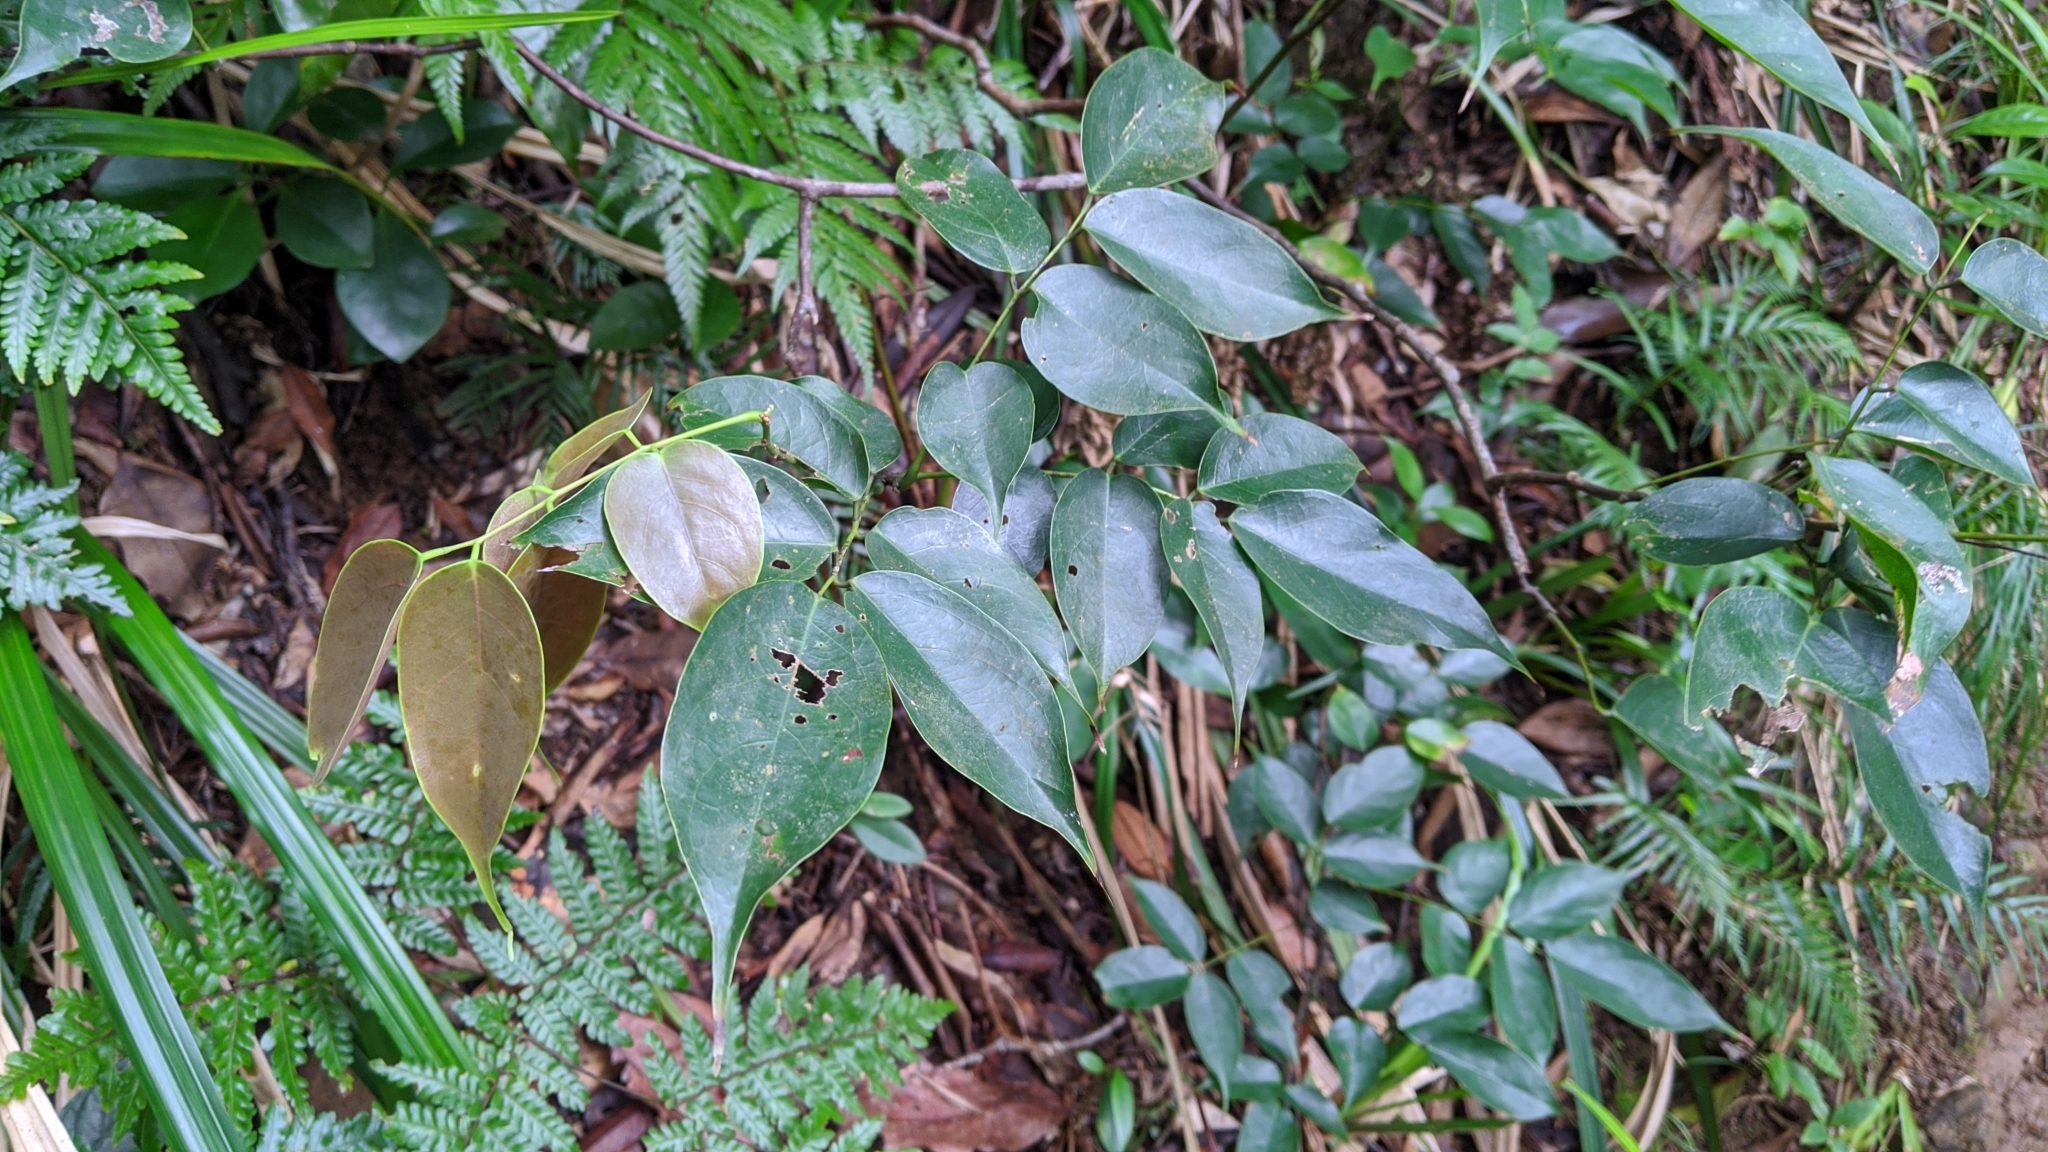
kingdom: Plantae
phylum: Tracheophyta
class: Magnoliopsida
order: Oxalidales
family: Connaraceae
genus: Rourea
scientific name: Rourea minor
